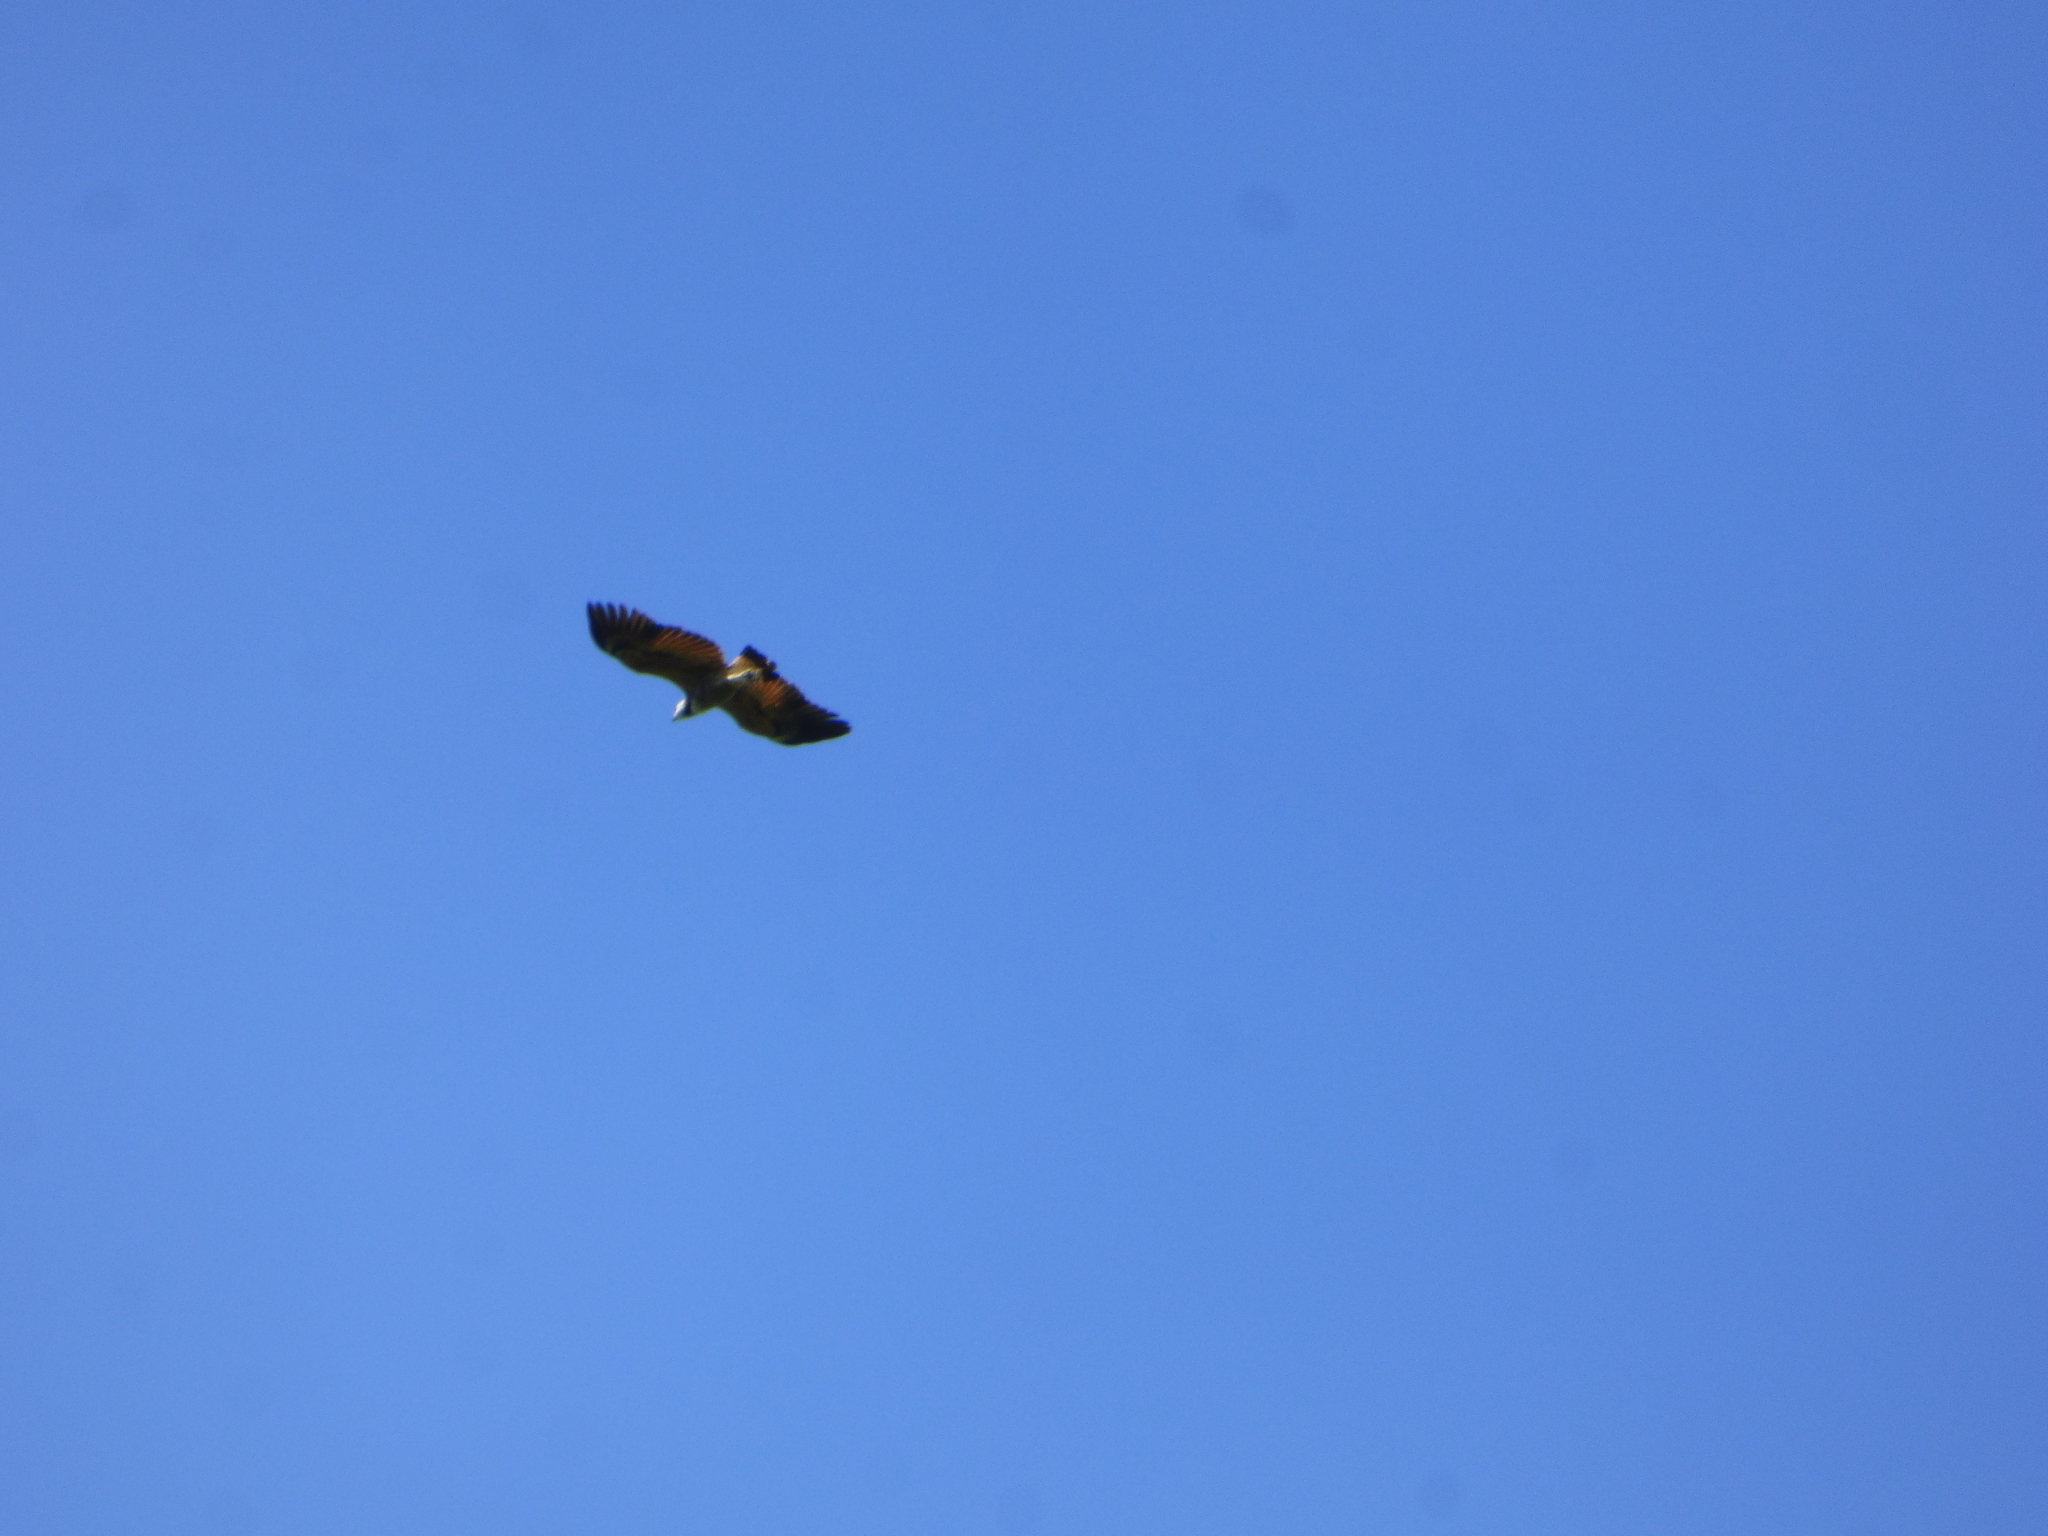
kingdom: Animalia
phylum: Chordata
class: Aves
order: Accipitriformes
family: Accipitridae
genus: Busarellus
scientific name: Busarellus nigricollis
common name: Black-collared hawk
